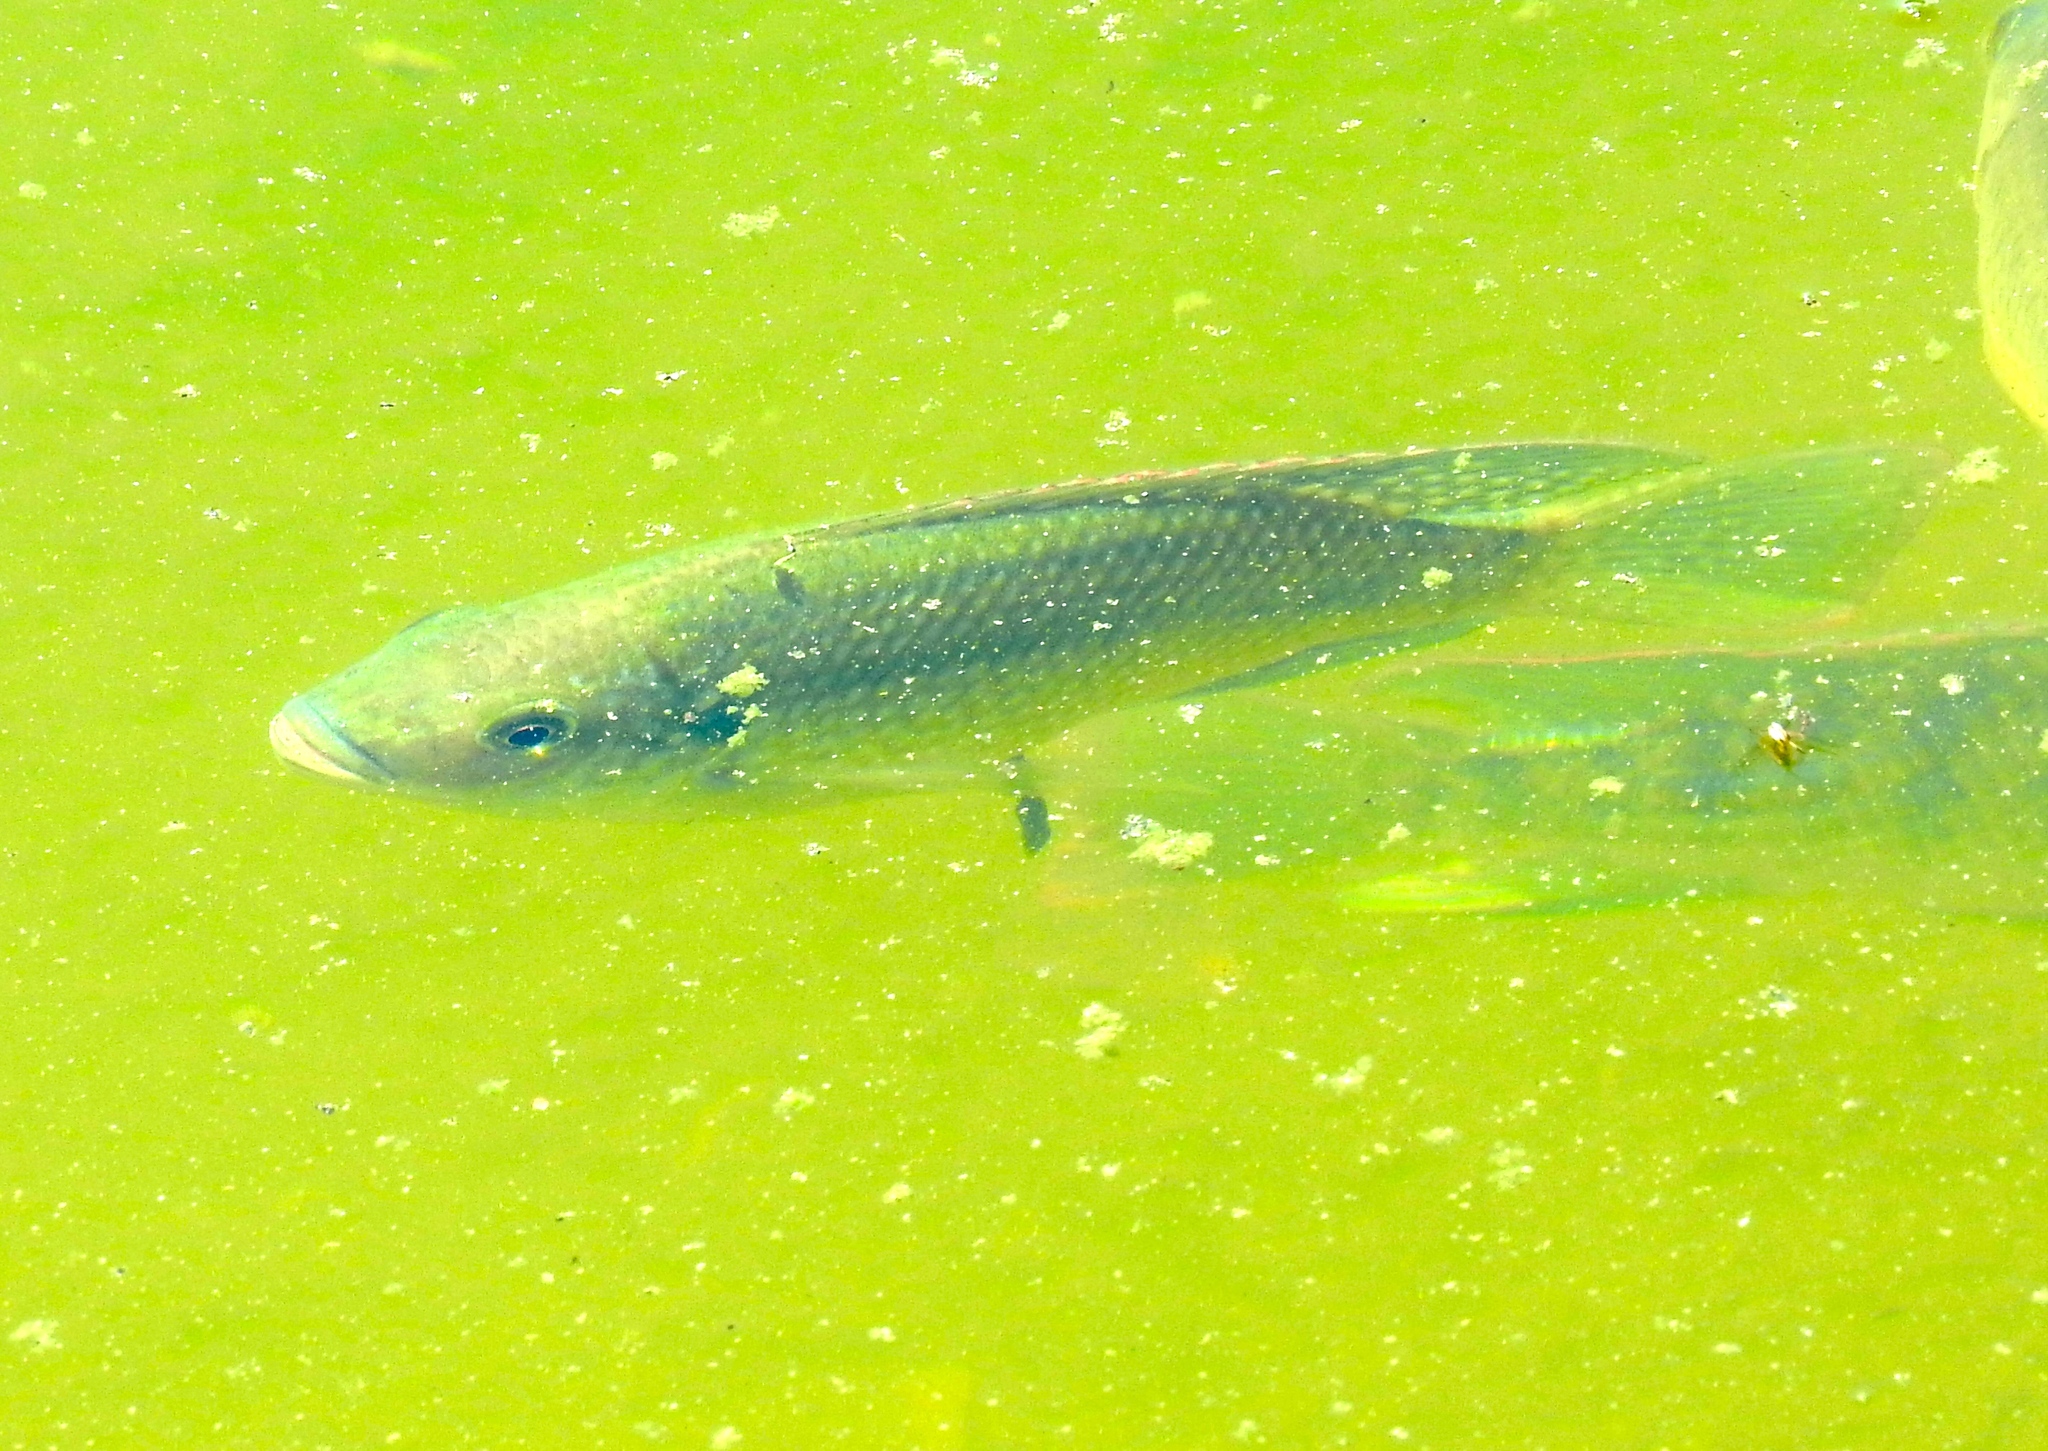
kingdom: Animalia
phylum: Chordata
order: Perciformes
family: Cichlidae
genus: Oreochromis
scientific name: Oreochromis
